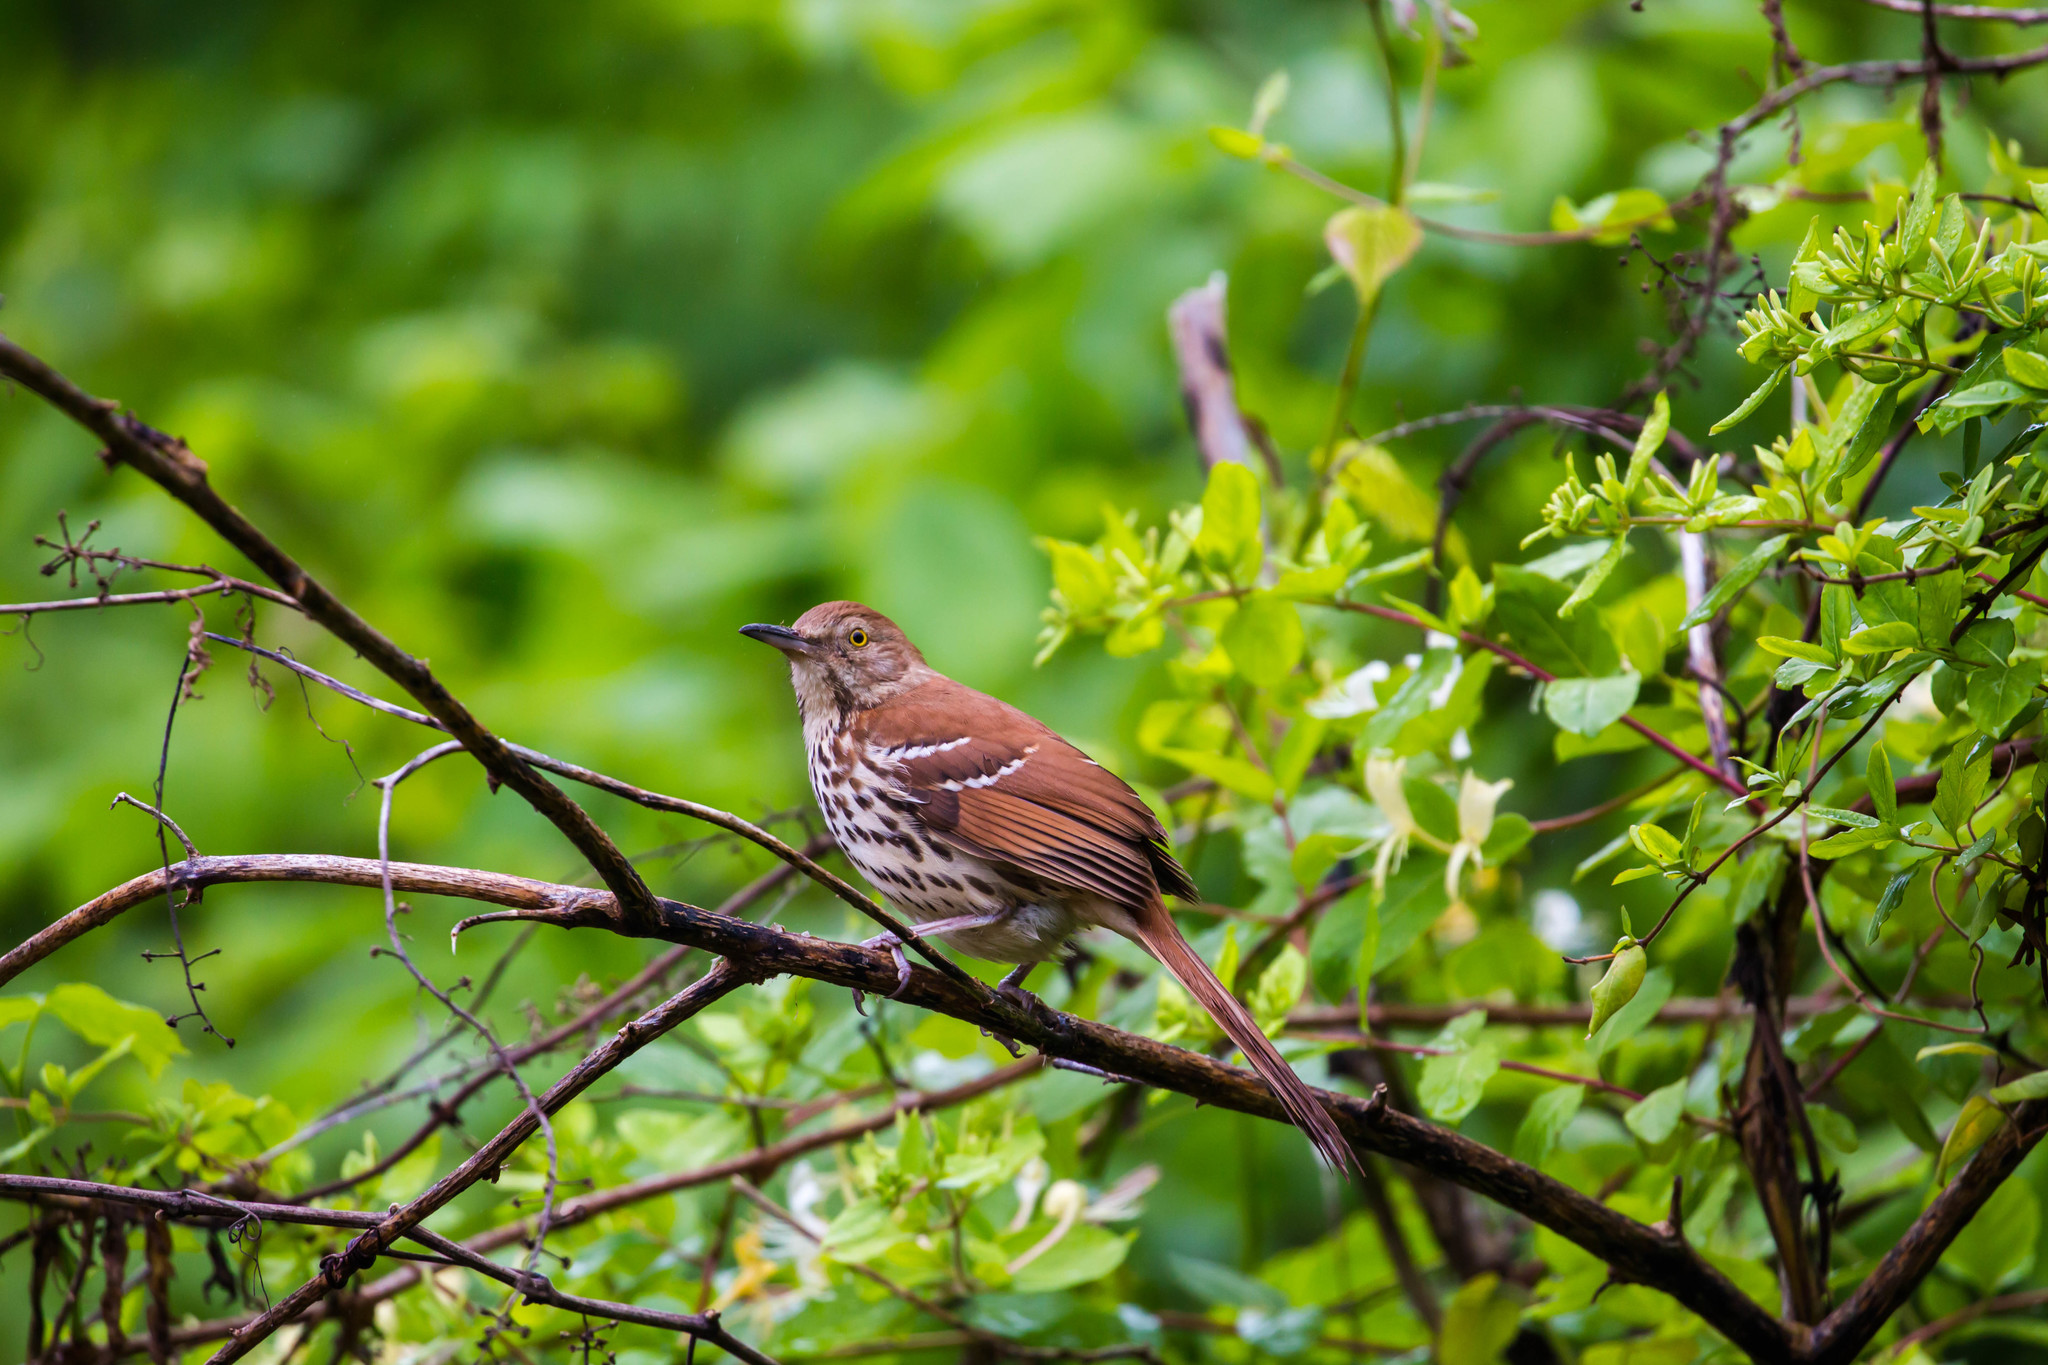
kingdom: Animalia
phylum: Chordata
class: Aves
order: Passeriformes
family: Mimidae
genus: Toxostoma
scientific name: Toxostoma rufum
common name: Brown thrasher
